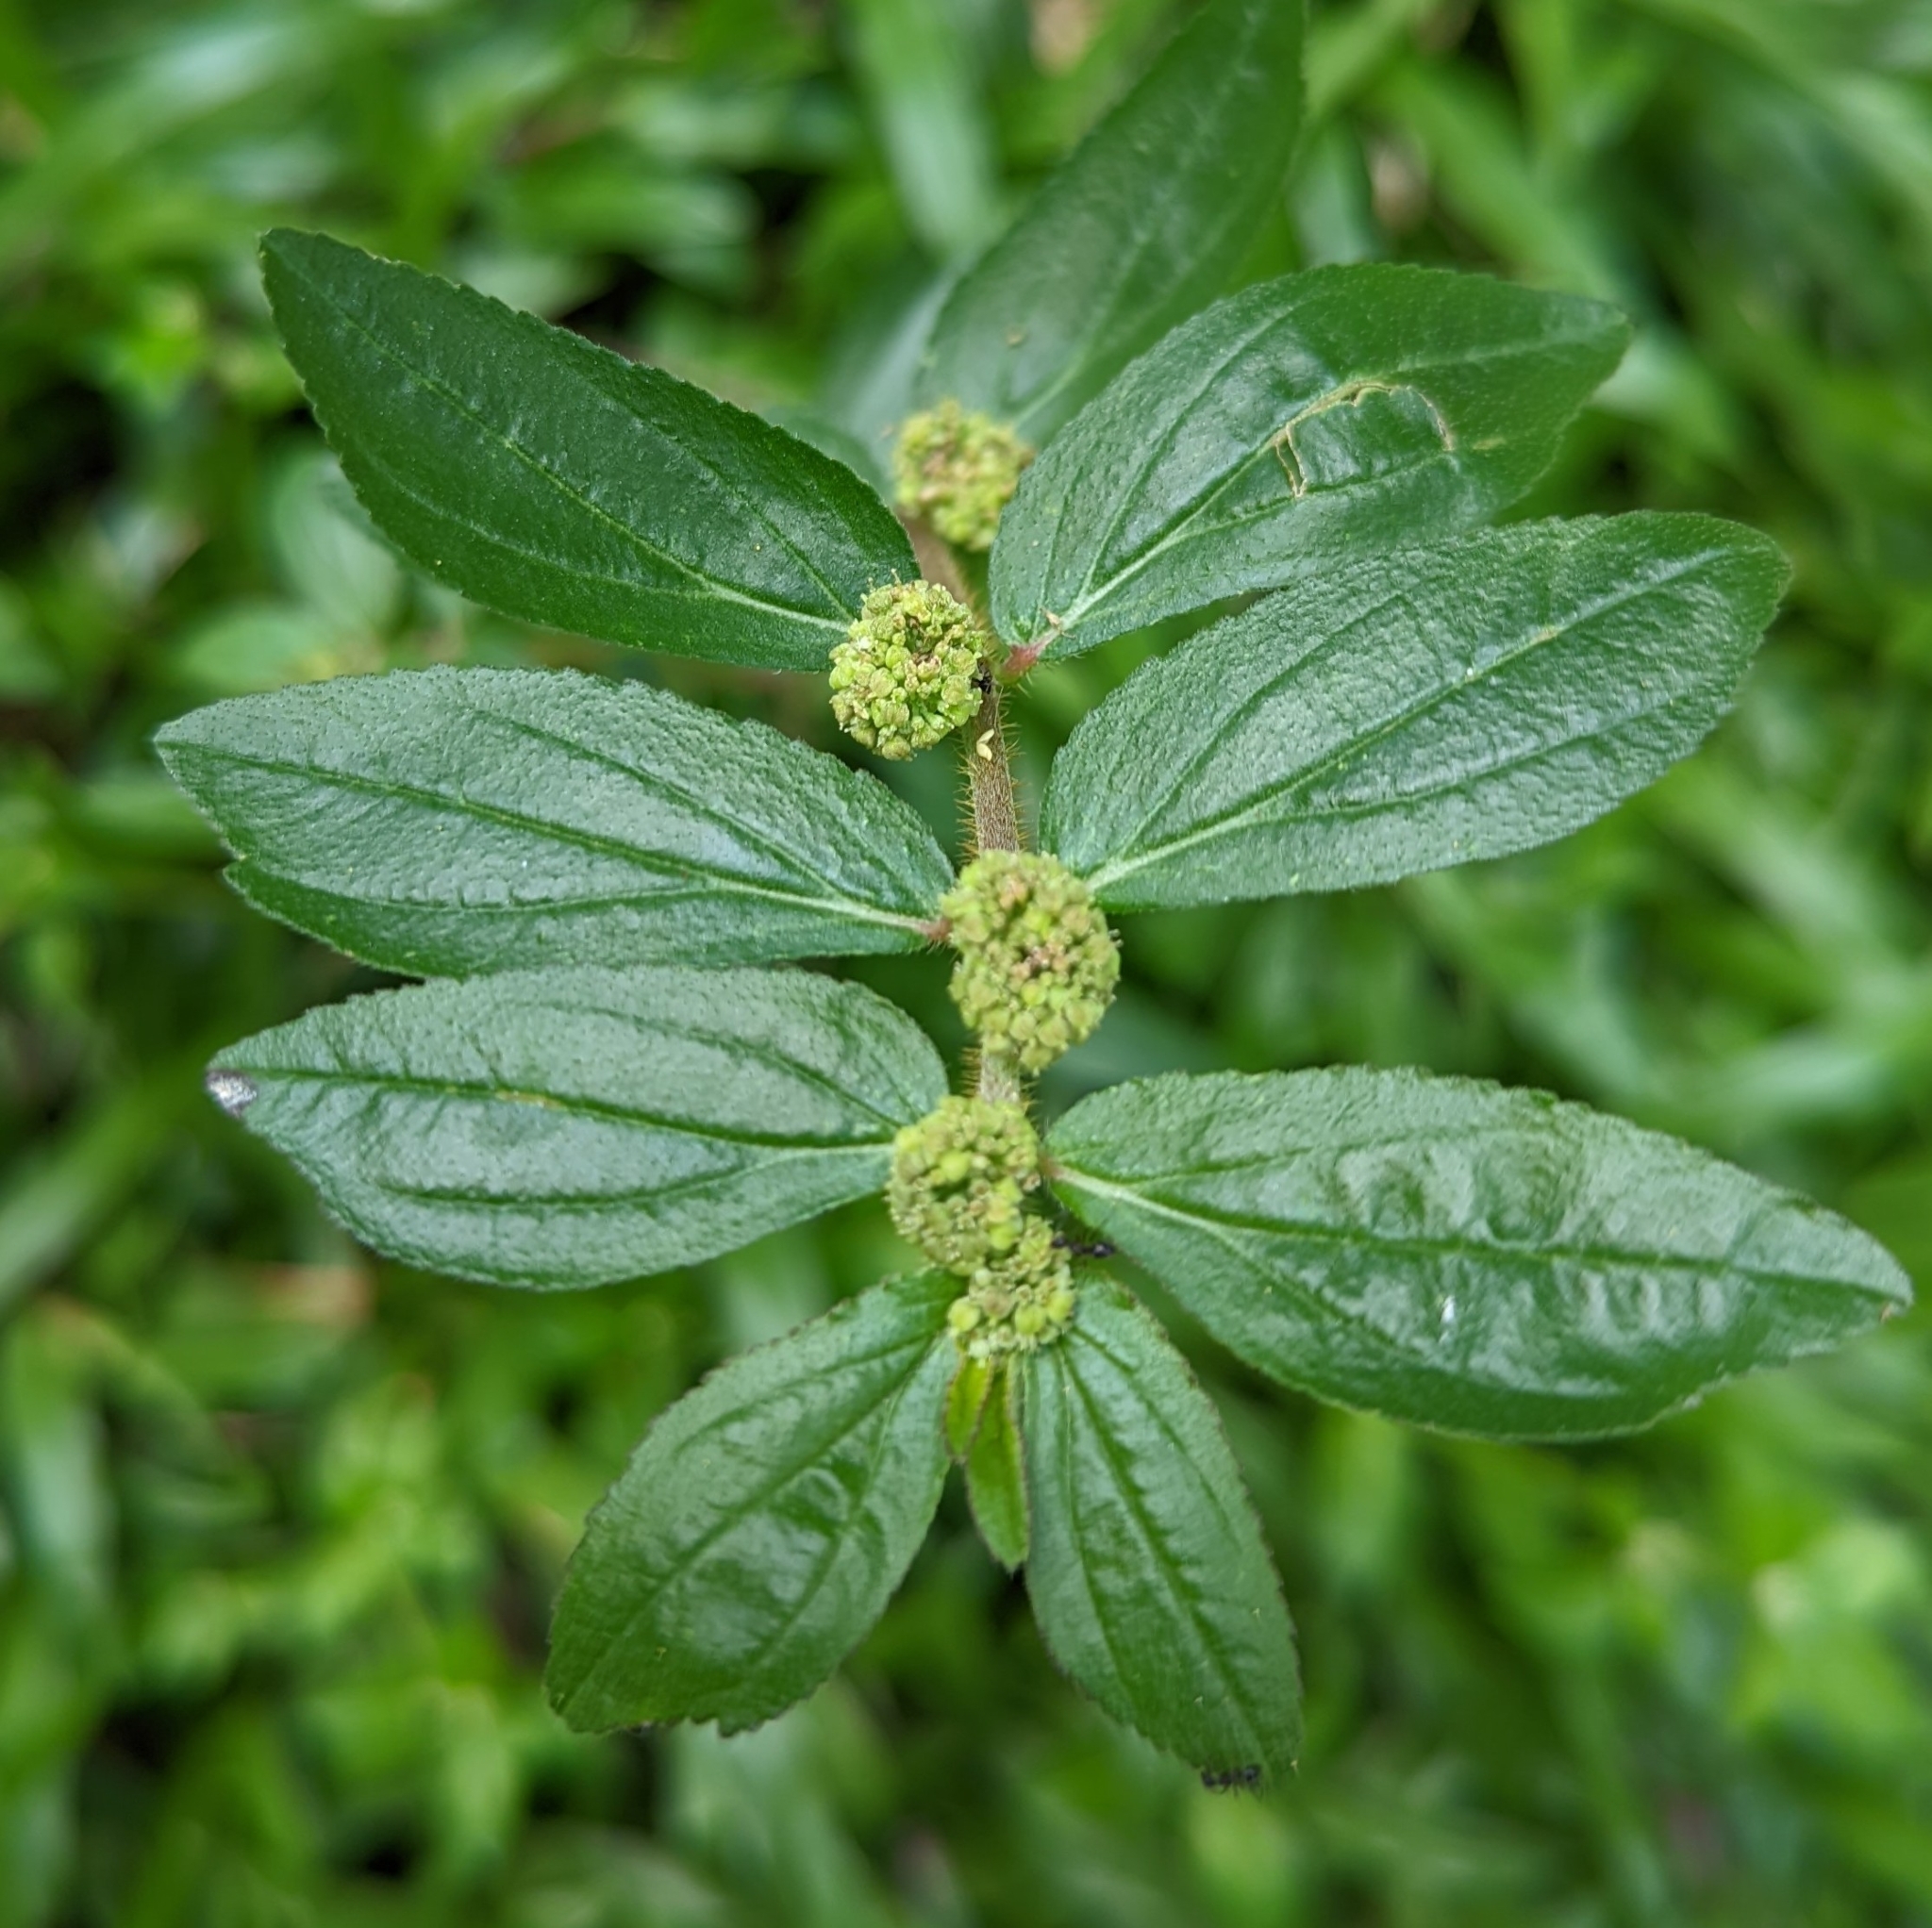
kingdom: Plantae
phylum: Tracheophyta
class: Magnoliopsida
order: Malpighiales
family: Euphorbiaceae
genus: Euphorbia
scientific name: Euphorbia hirta
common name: Pillpod sandmat
